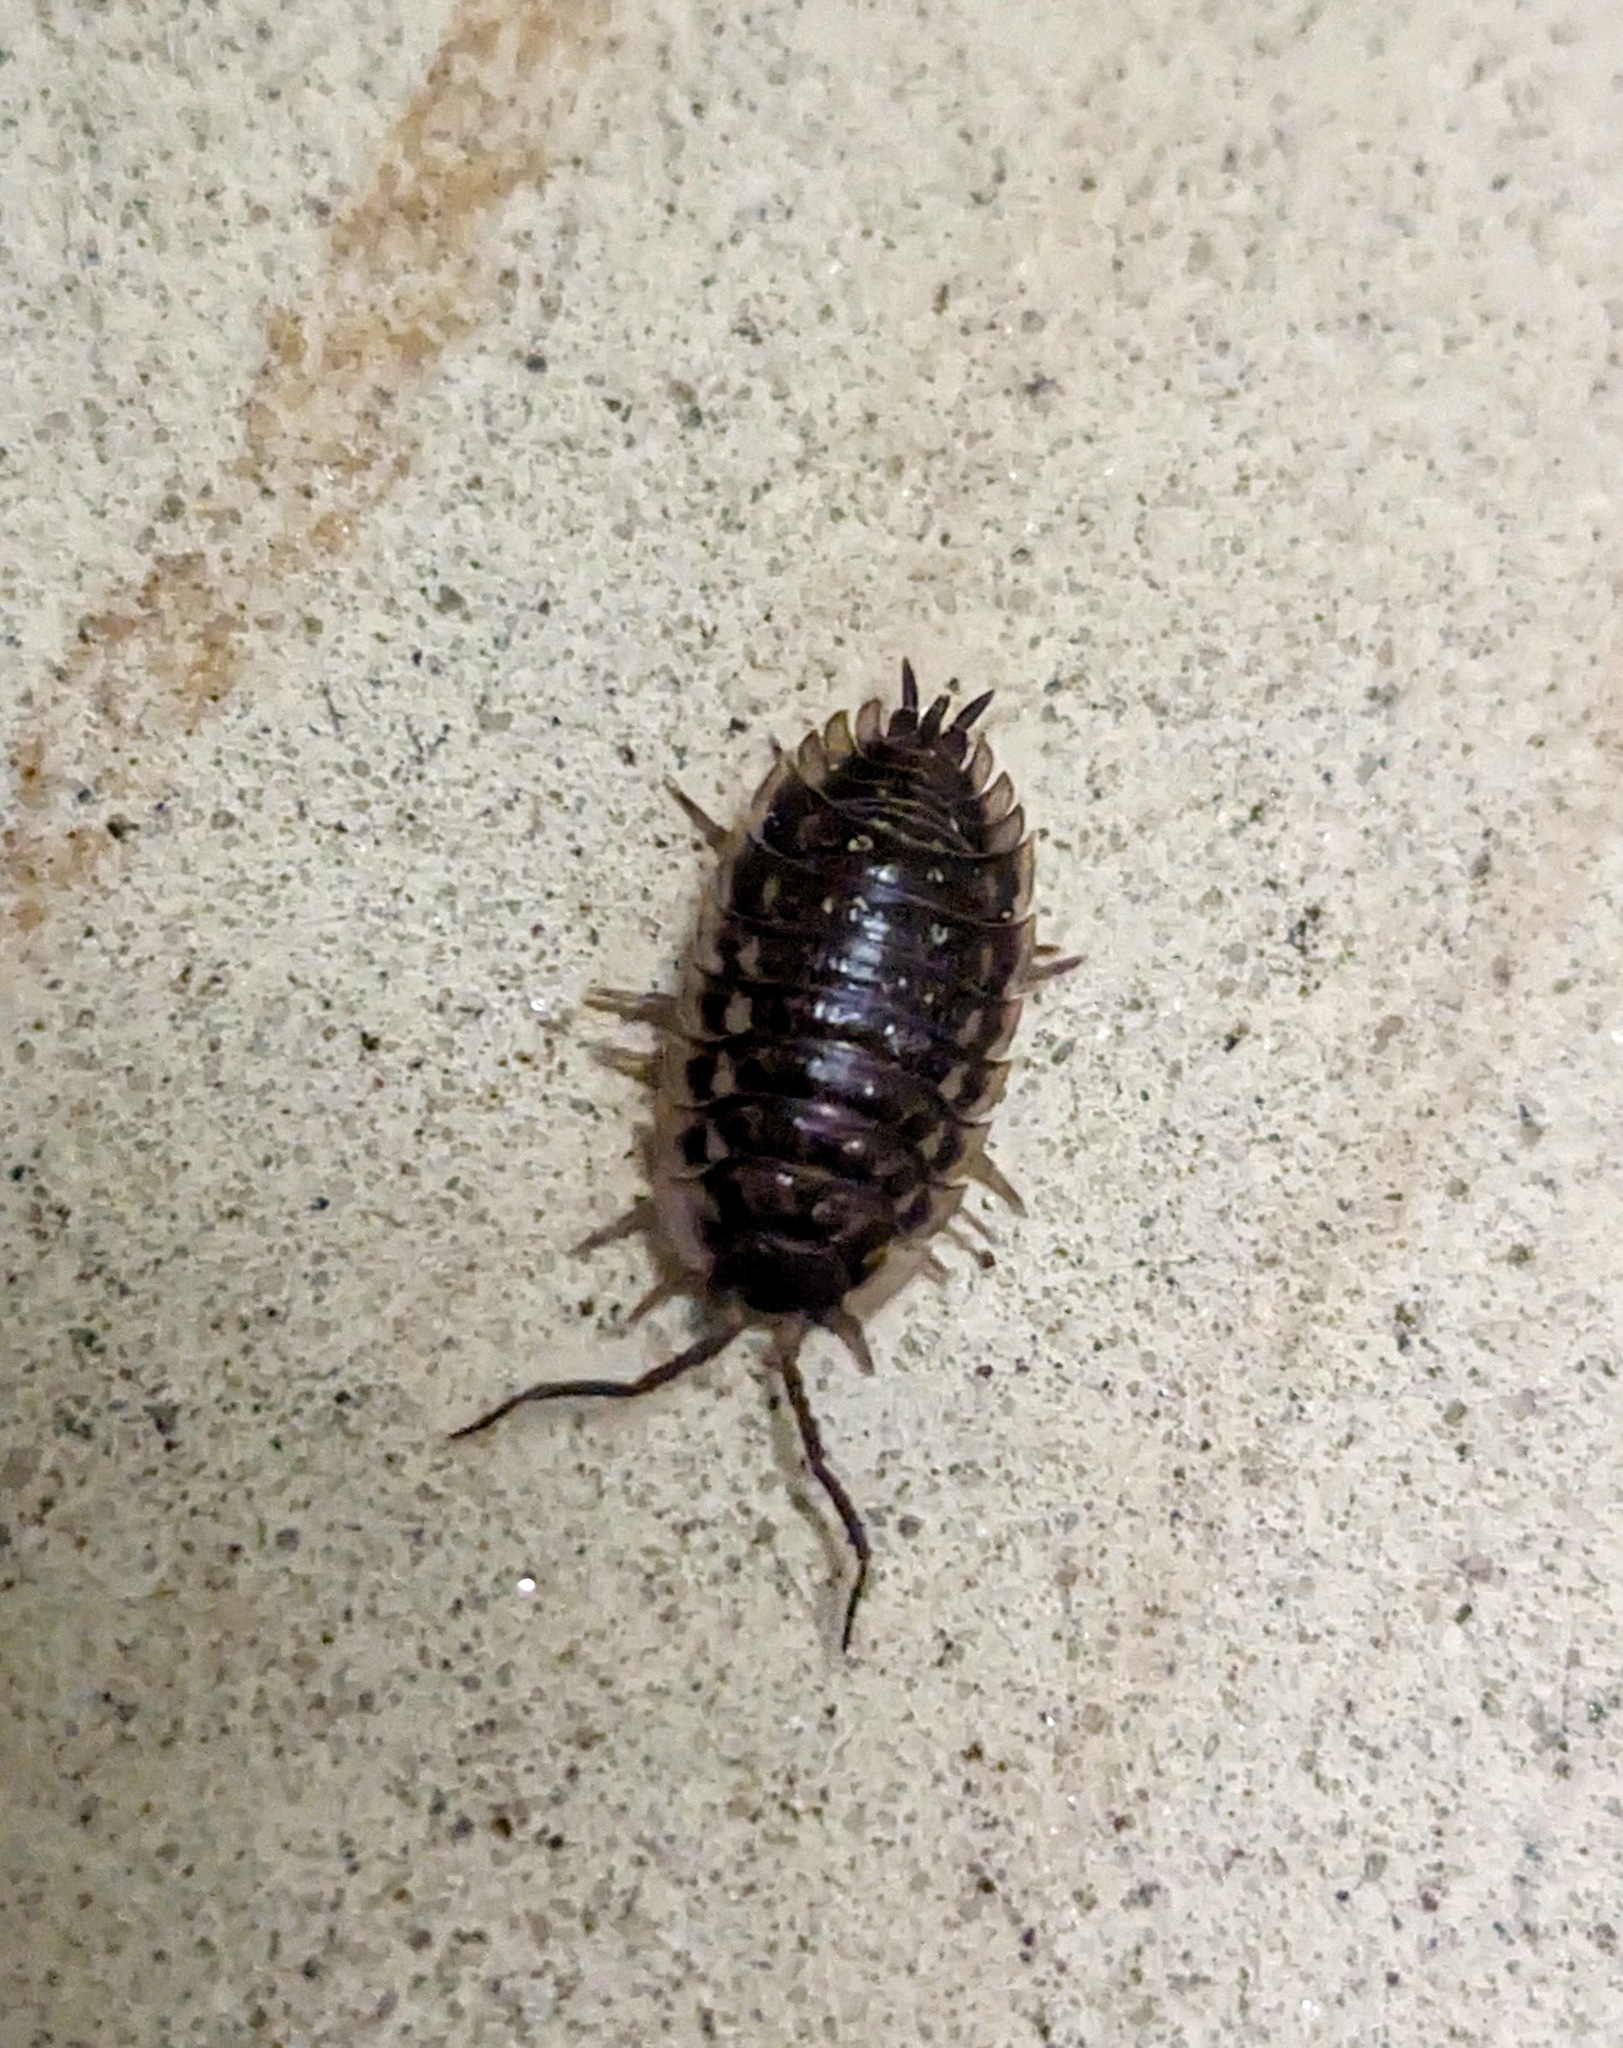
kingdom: Animalia
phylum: Arthropoda
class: Malacostraca
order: Isopoda
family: Oniscidae
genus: Oniscus
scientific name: Oniscus asellus
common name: Common shiny woodlouse
